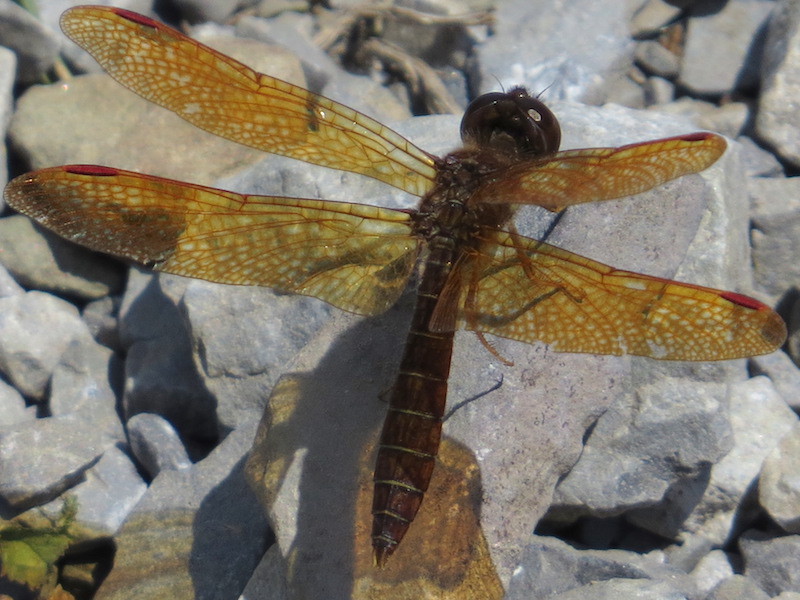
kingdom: Animalia
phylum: Arthropoda
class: Insecta
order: Odonata
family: Libellulidae
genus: Perithemis
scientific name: Perithemis tenera
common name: Eastern amberwing
